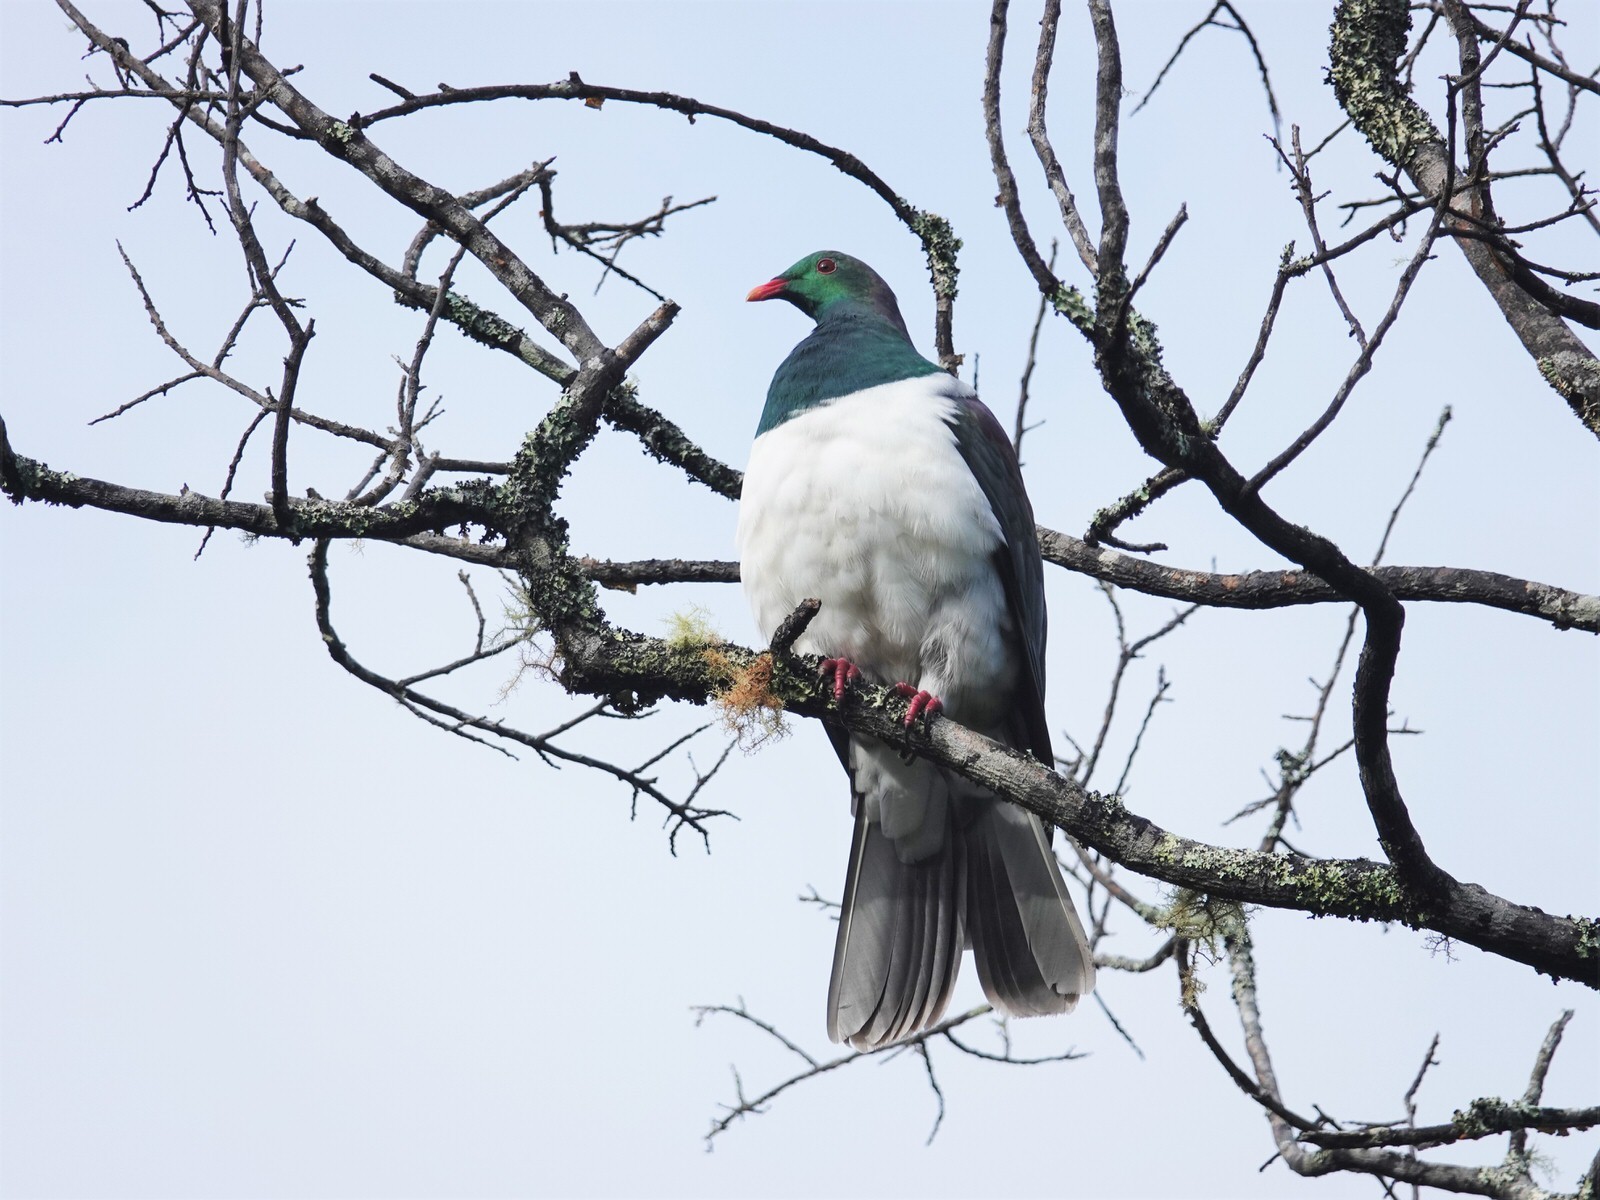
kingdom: Animalia
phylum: Chordata
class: Aves
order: Columbiformes
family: Columbidae
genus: Hemiphaga
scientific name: Hemiphaga novaeseelandiae
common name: New zealand pigeon
